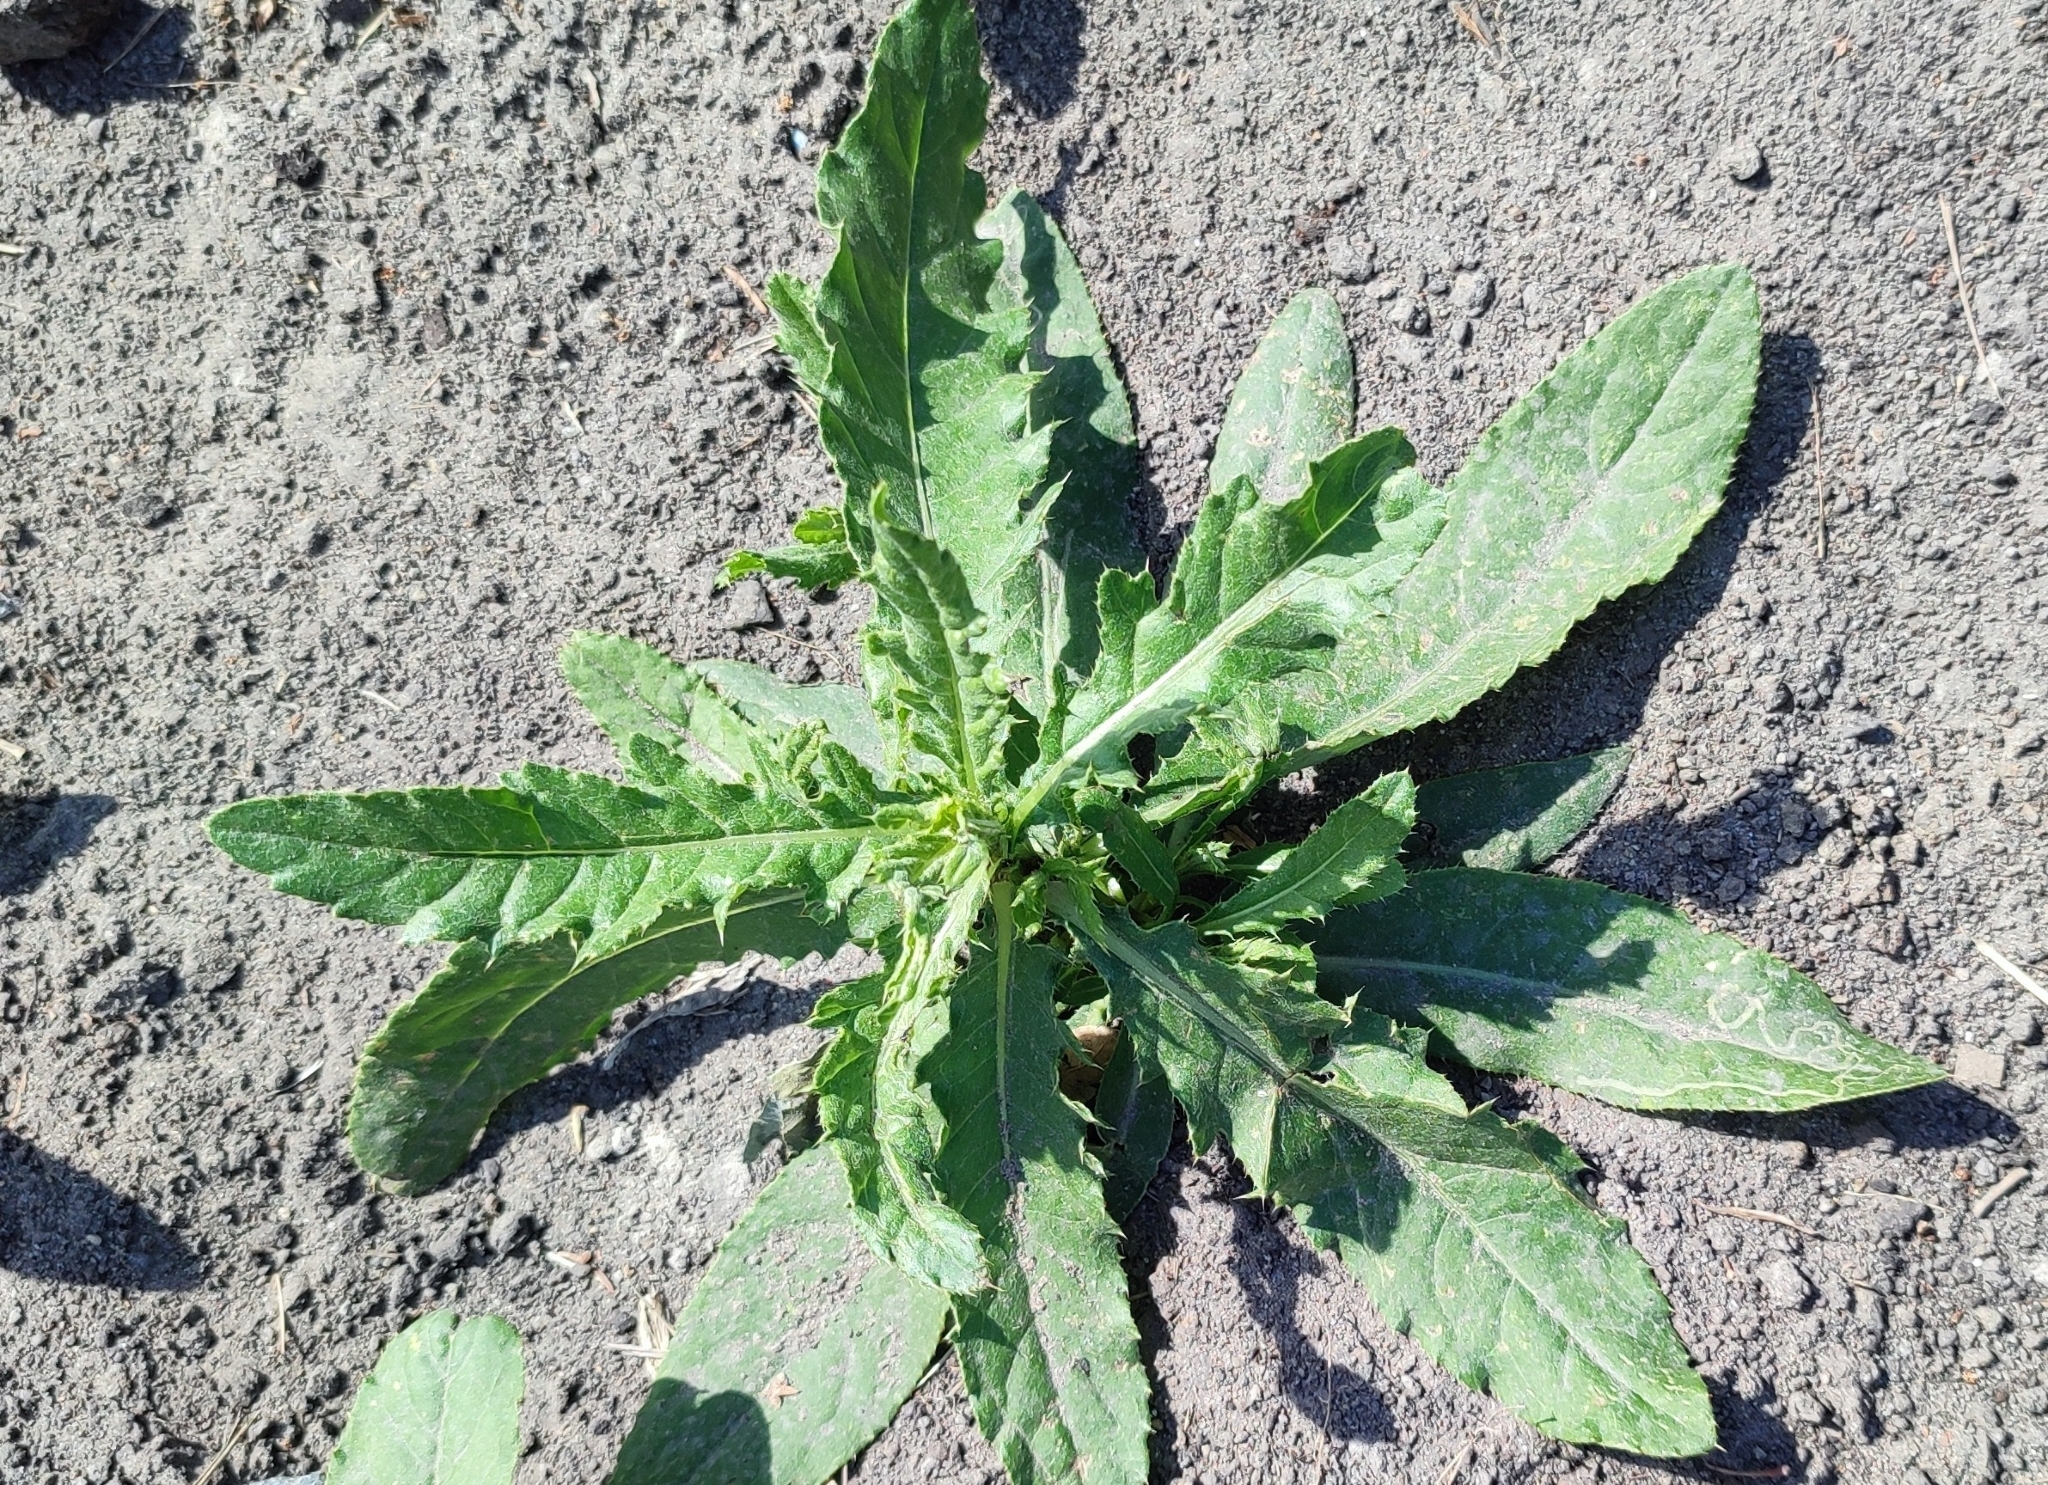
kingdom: Plantae
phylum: Tracheophyta
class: Magnoliopsida
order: Asterales
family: Asteraceae
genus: Cirsium
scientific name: Cirsium arvense
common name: Creeping thistle
